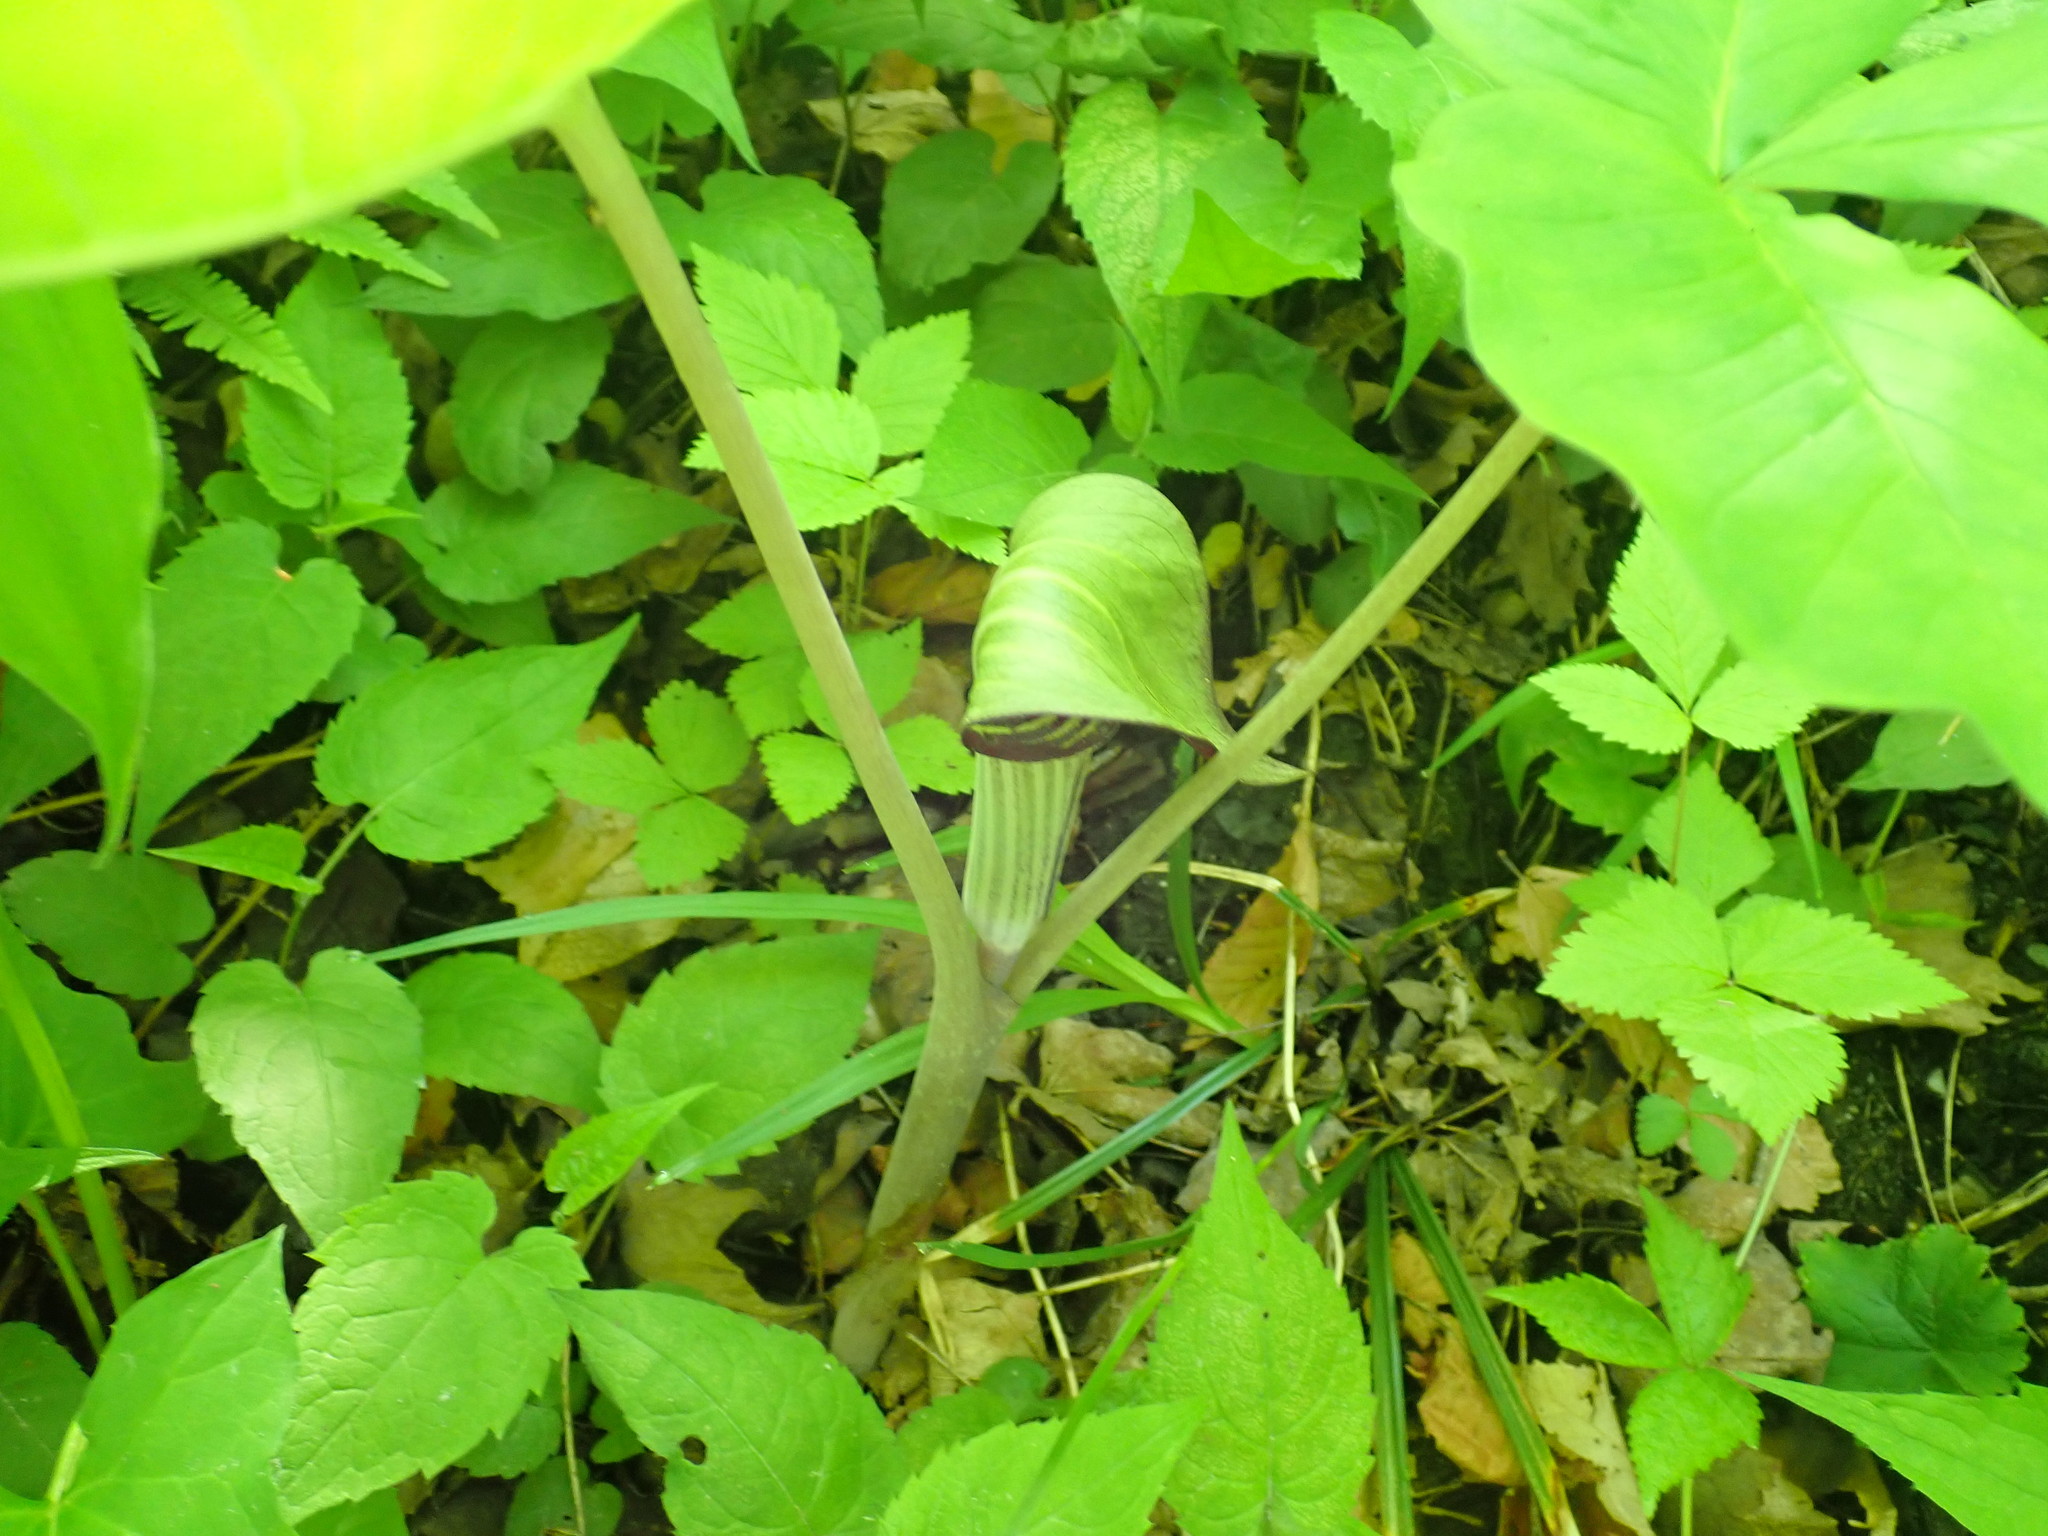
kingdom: Plantae
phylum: Tracheophyta
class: Liliopsida
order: Alismatales
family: Araceae
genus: Arisaema
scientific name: Arisaema triphyllum
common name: Jack-in-the-pulpit
